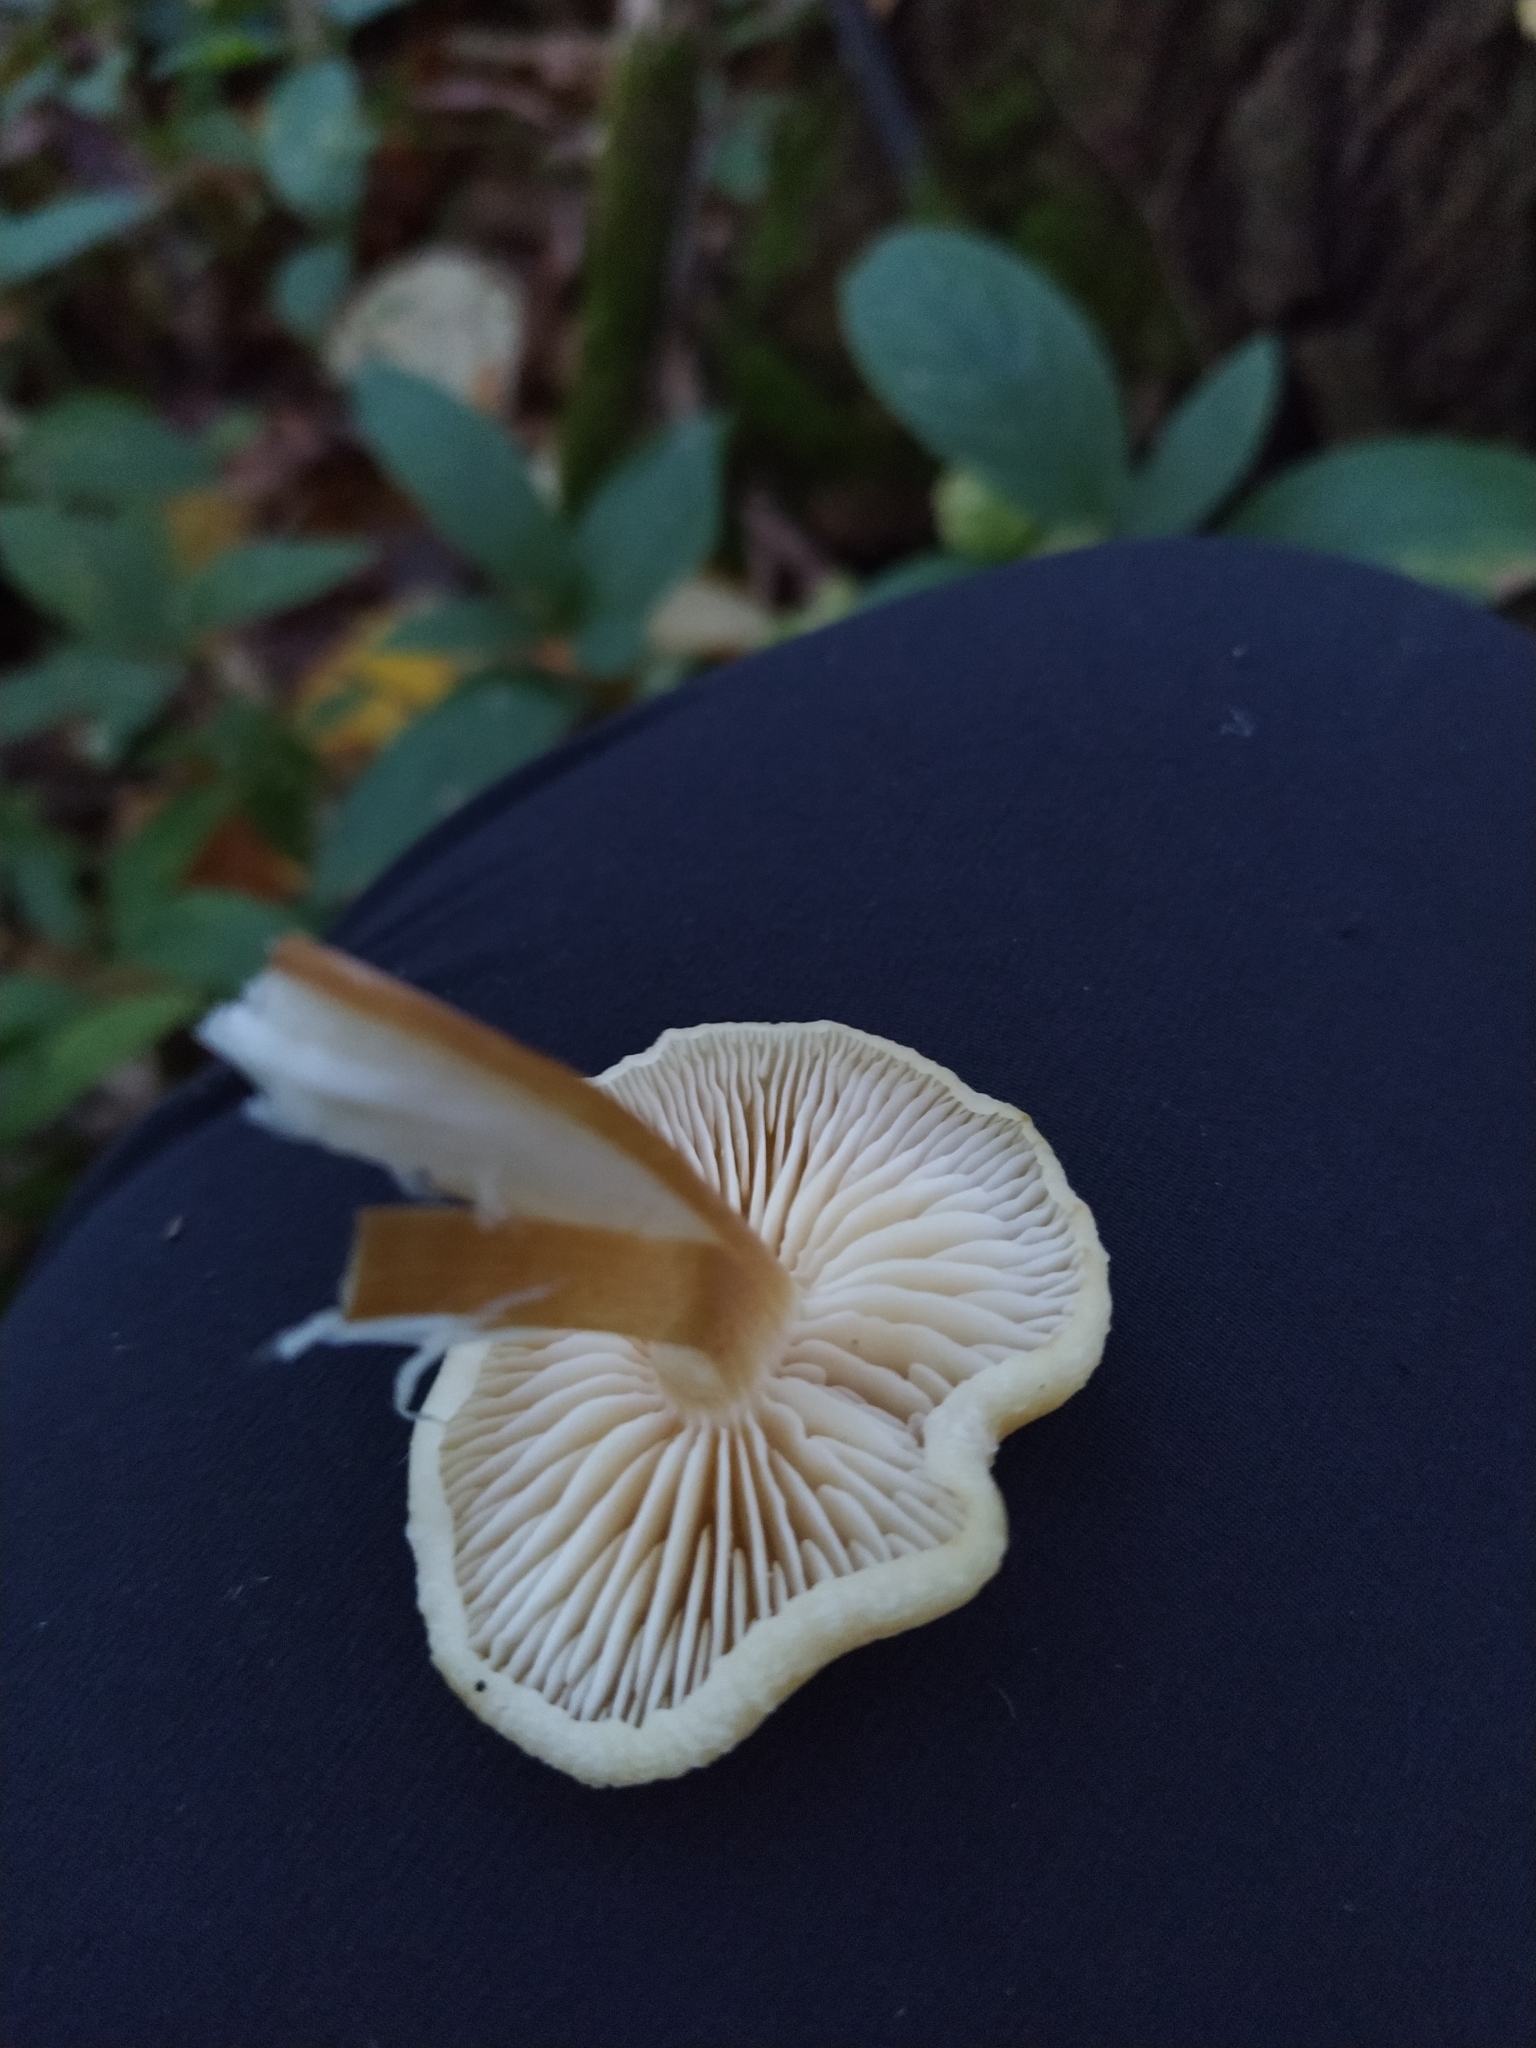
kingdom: Fungi
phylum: Basidiomycota
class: Agaricomycetes
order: Agaricales
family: Physalacriaceae
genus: Flammulina
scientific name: Flammulina
